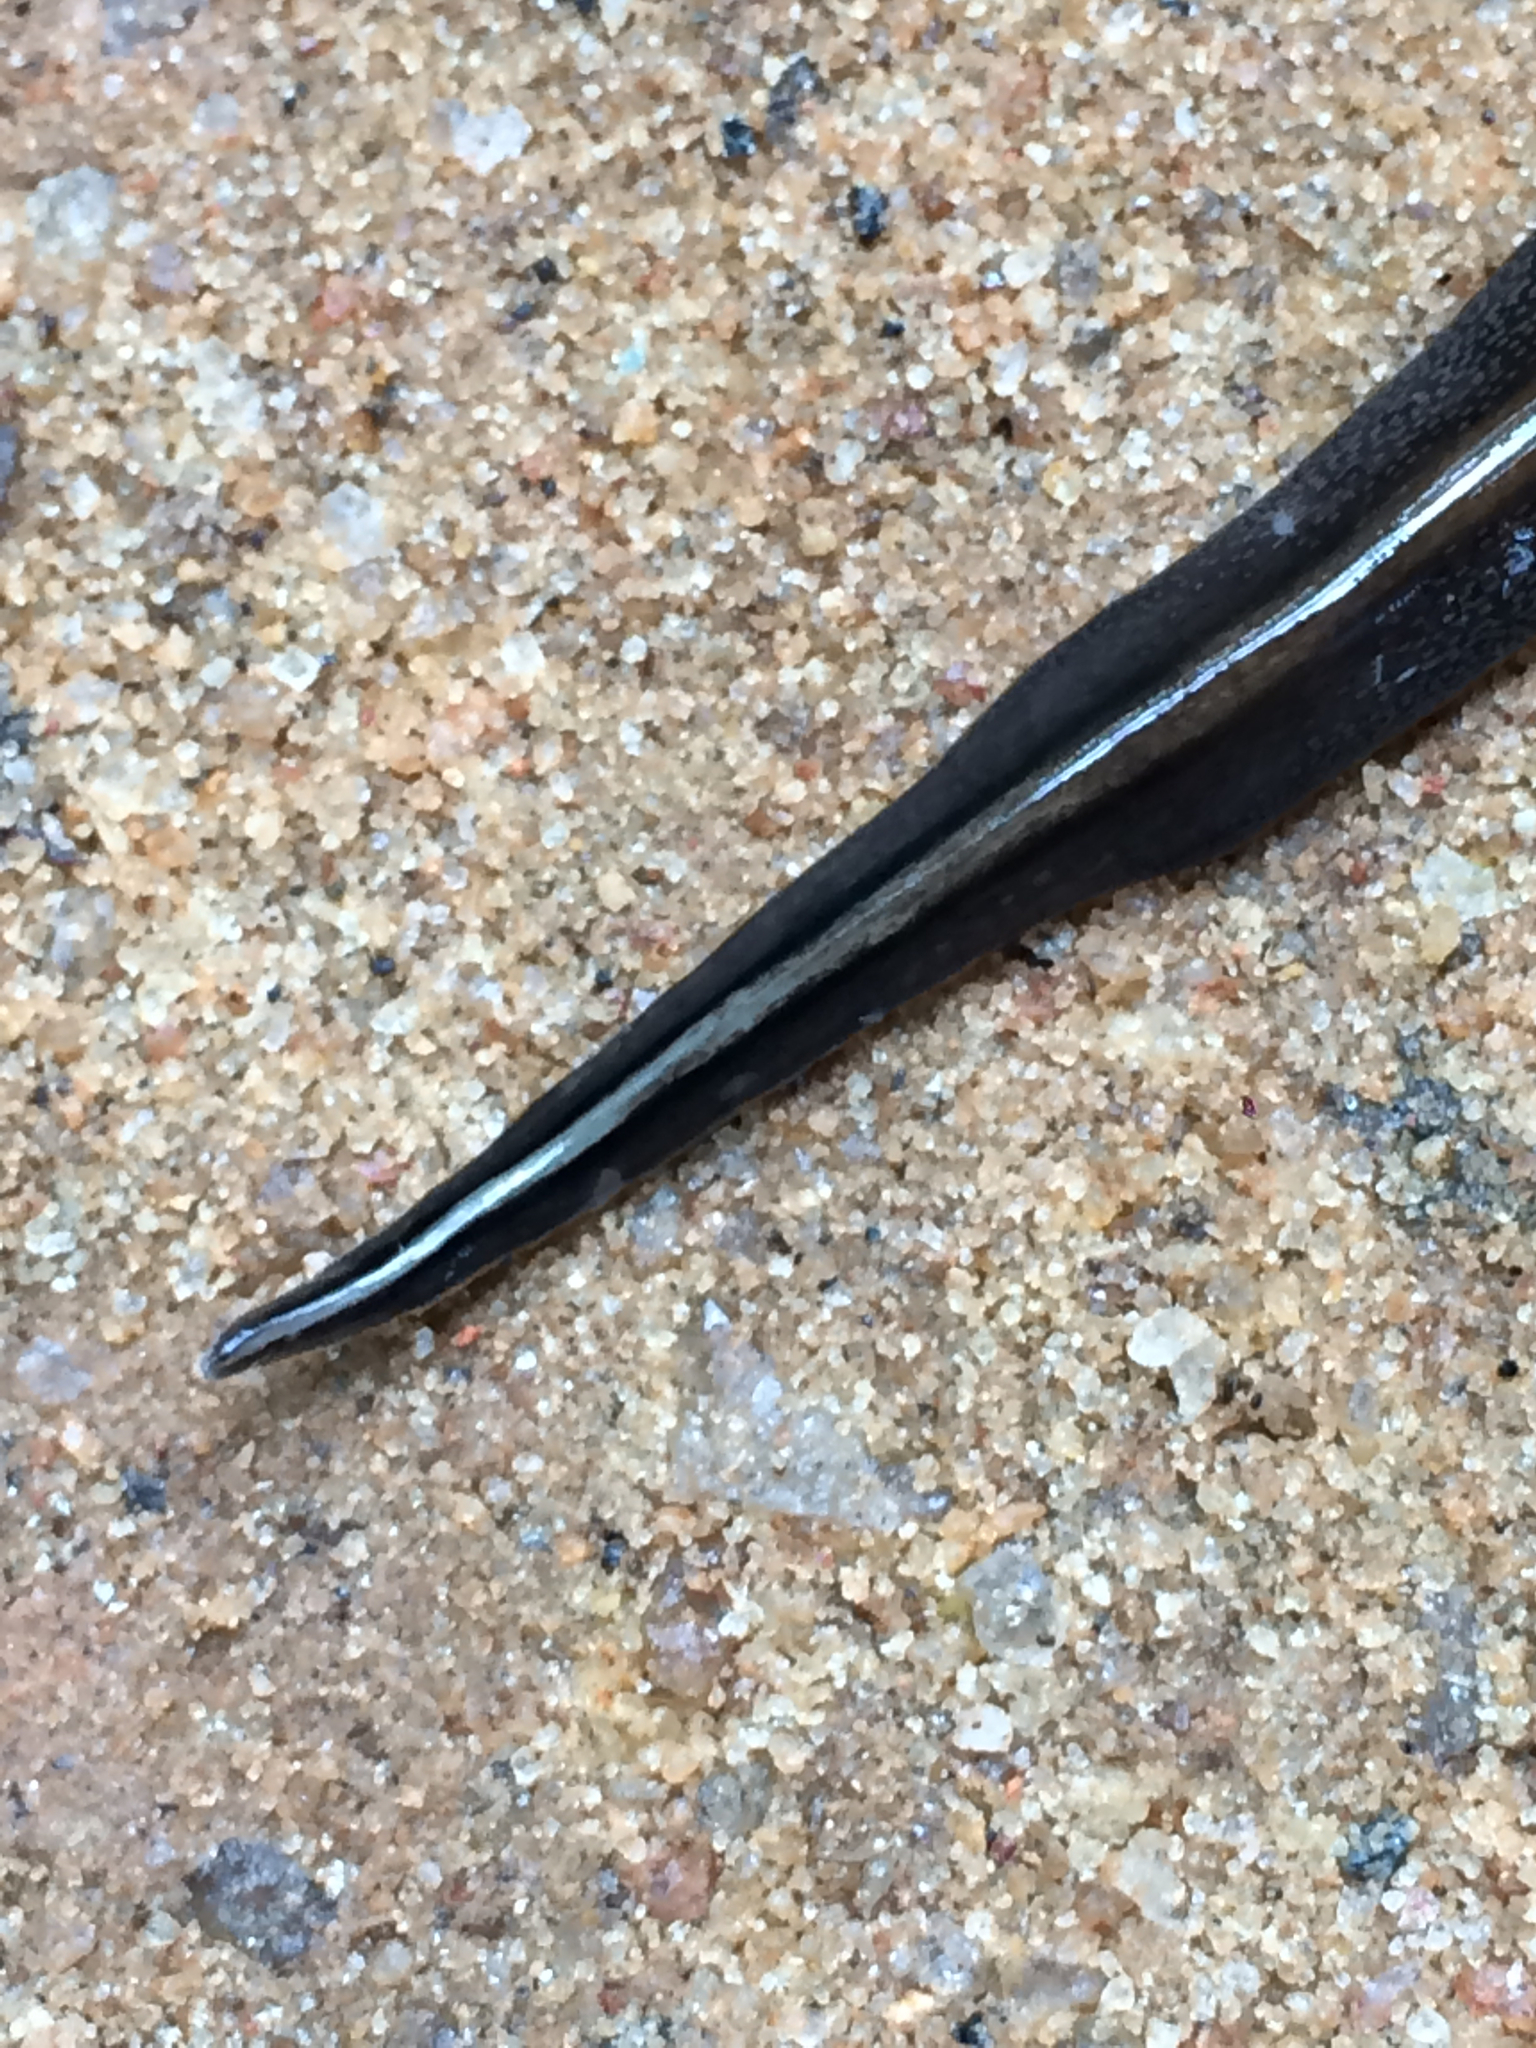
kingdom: Animalia
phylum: Platyhelminthes
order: Tricladida
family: Geoplanidae
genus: Obama
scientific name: Obama burmeisteri
